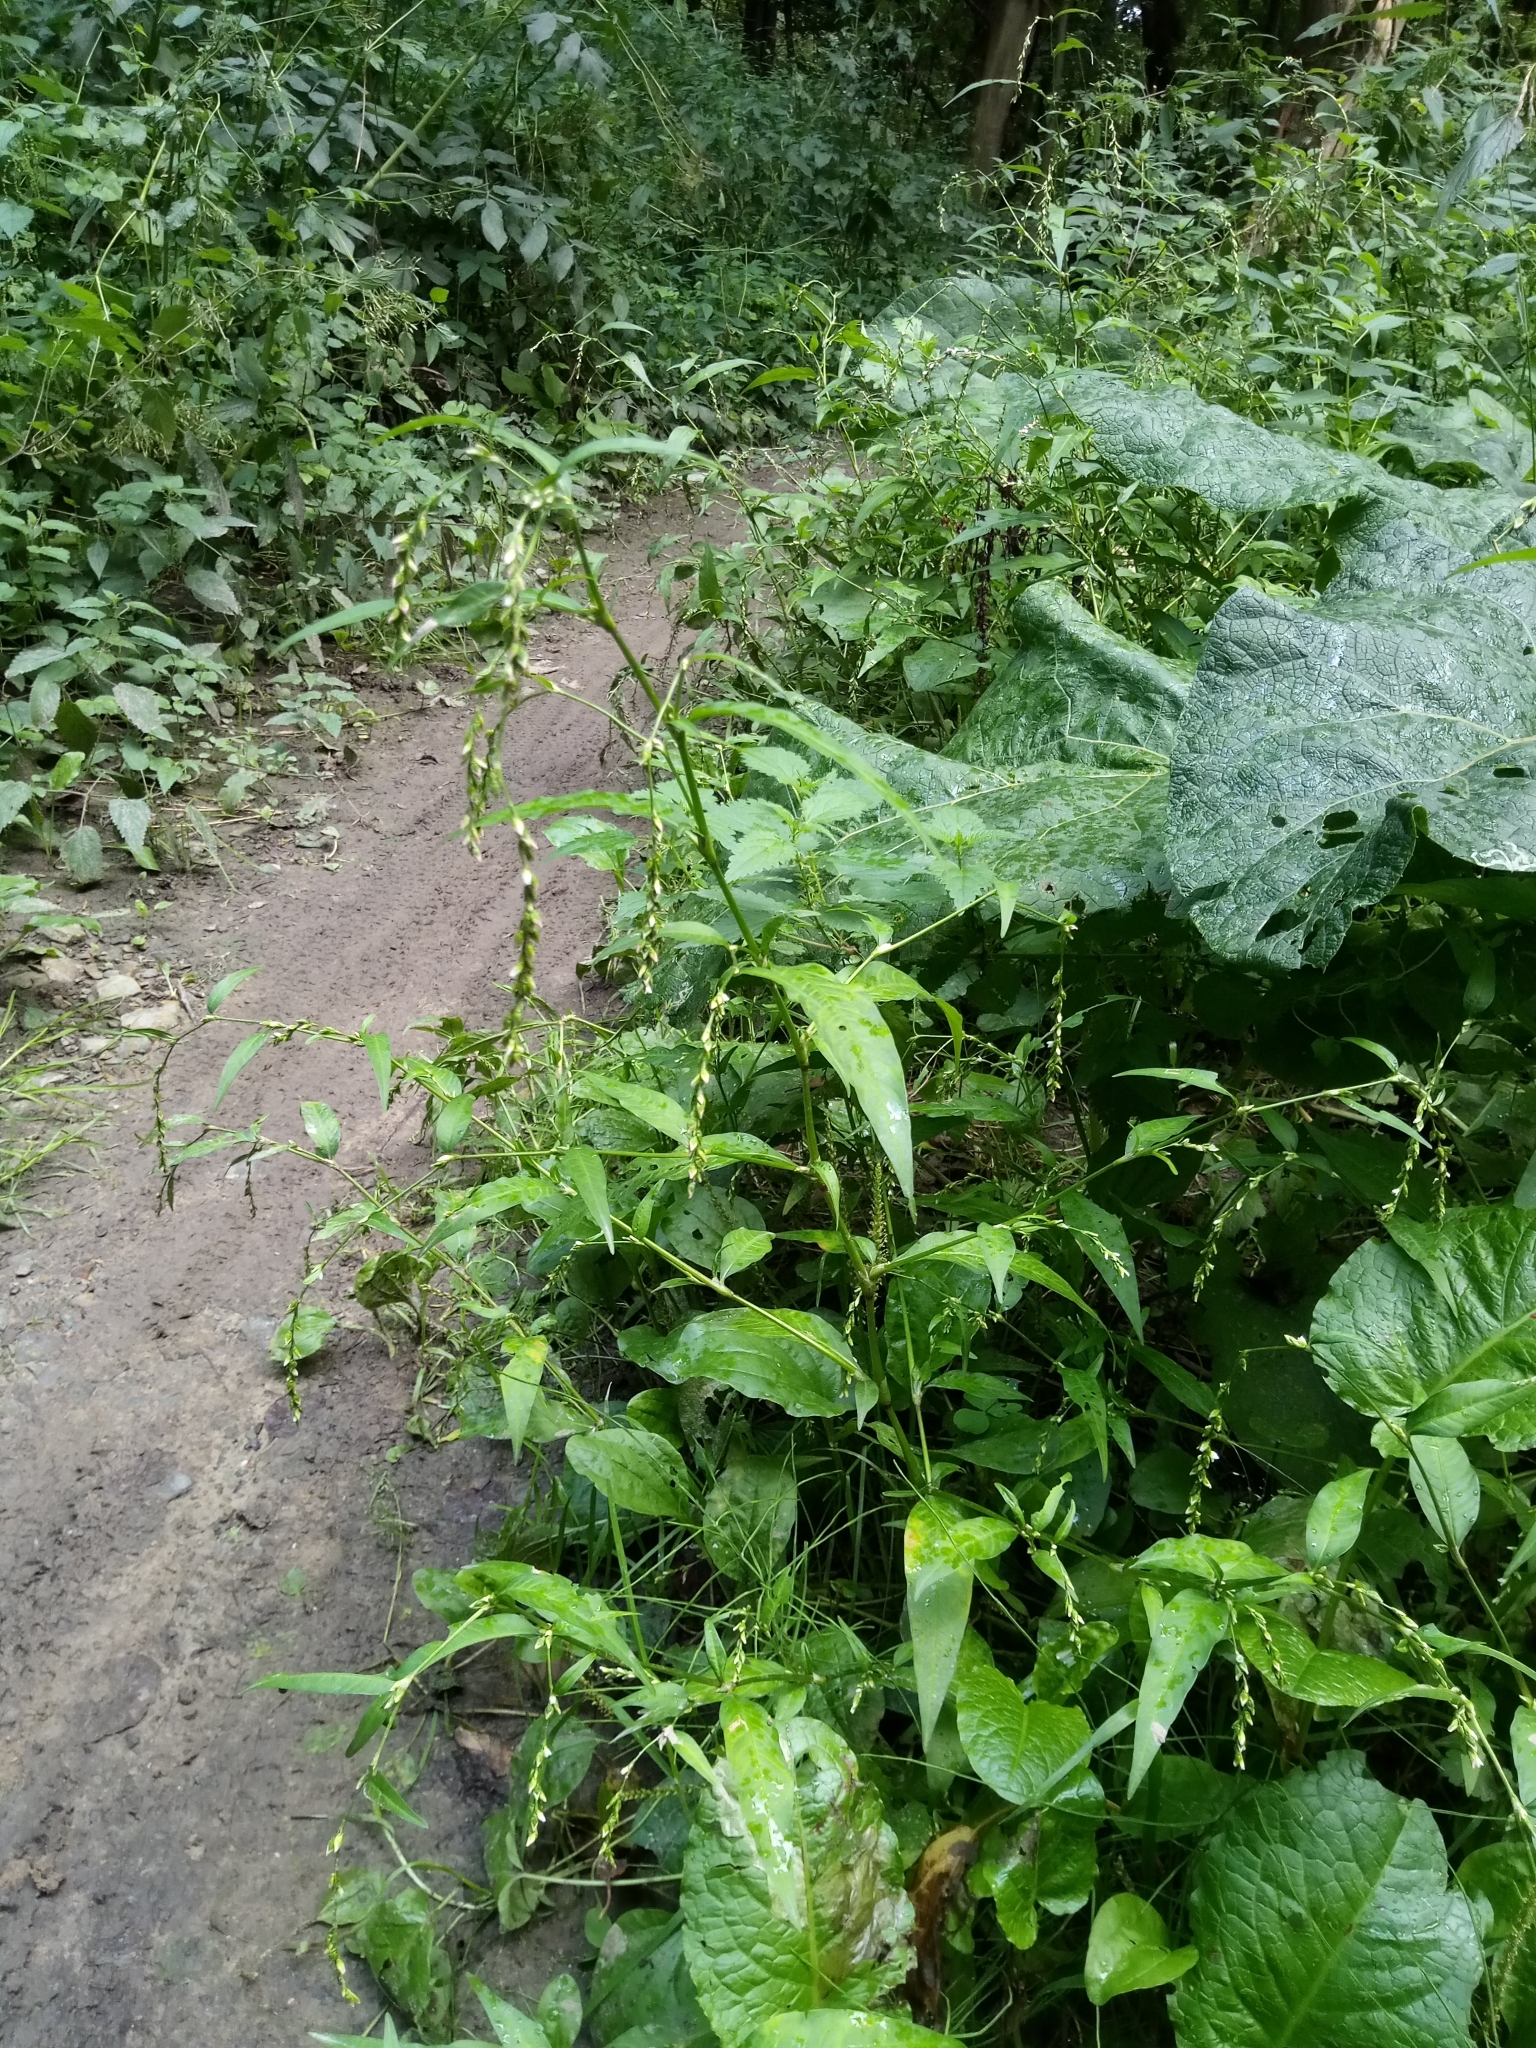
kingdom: Plantae
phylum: Tracheophyta
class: Magnoliopsida
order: Caryophyllales
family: Polygonaceae
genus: Persicaria
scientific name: Persicaria hydropiper
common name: Water-pepper
